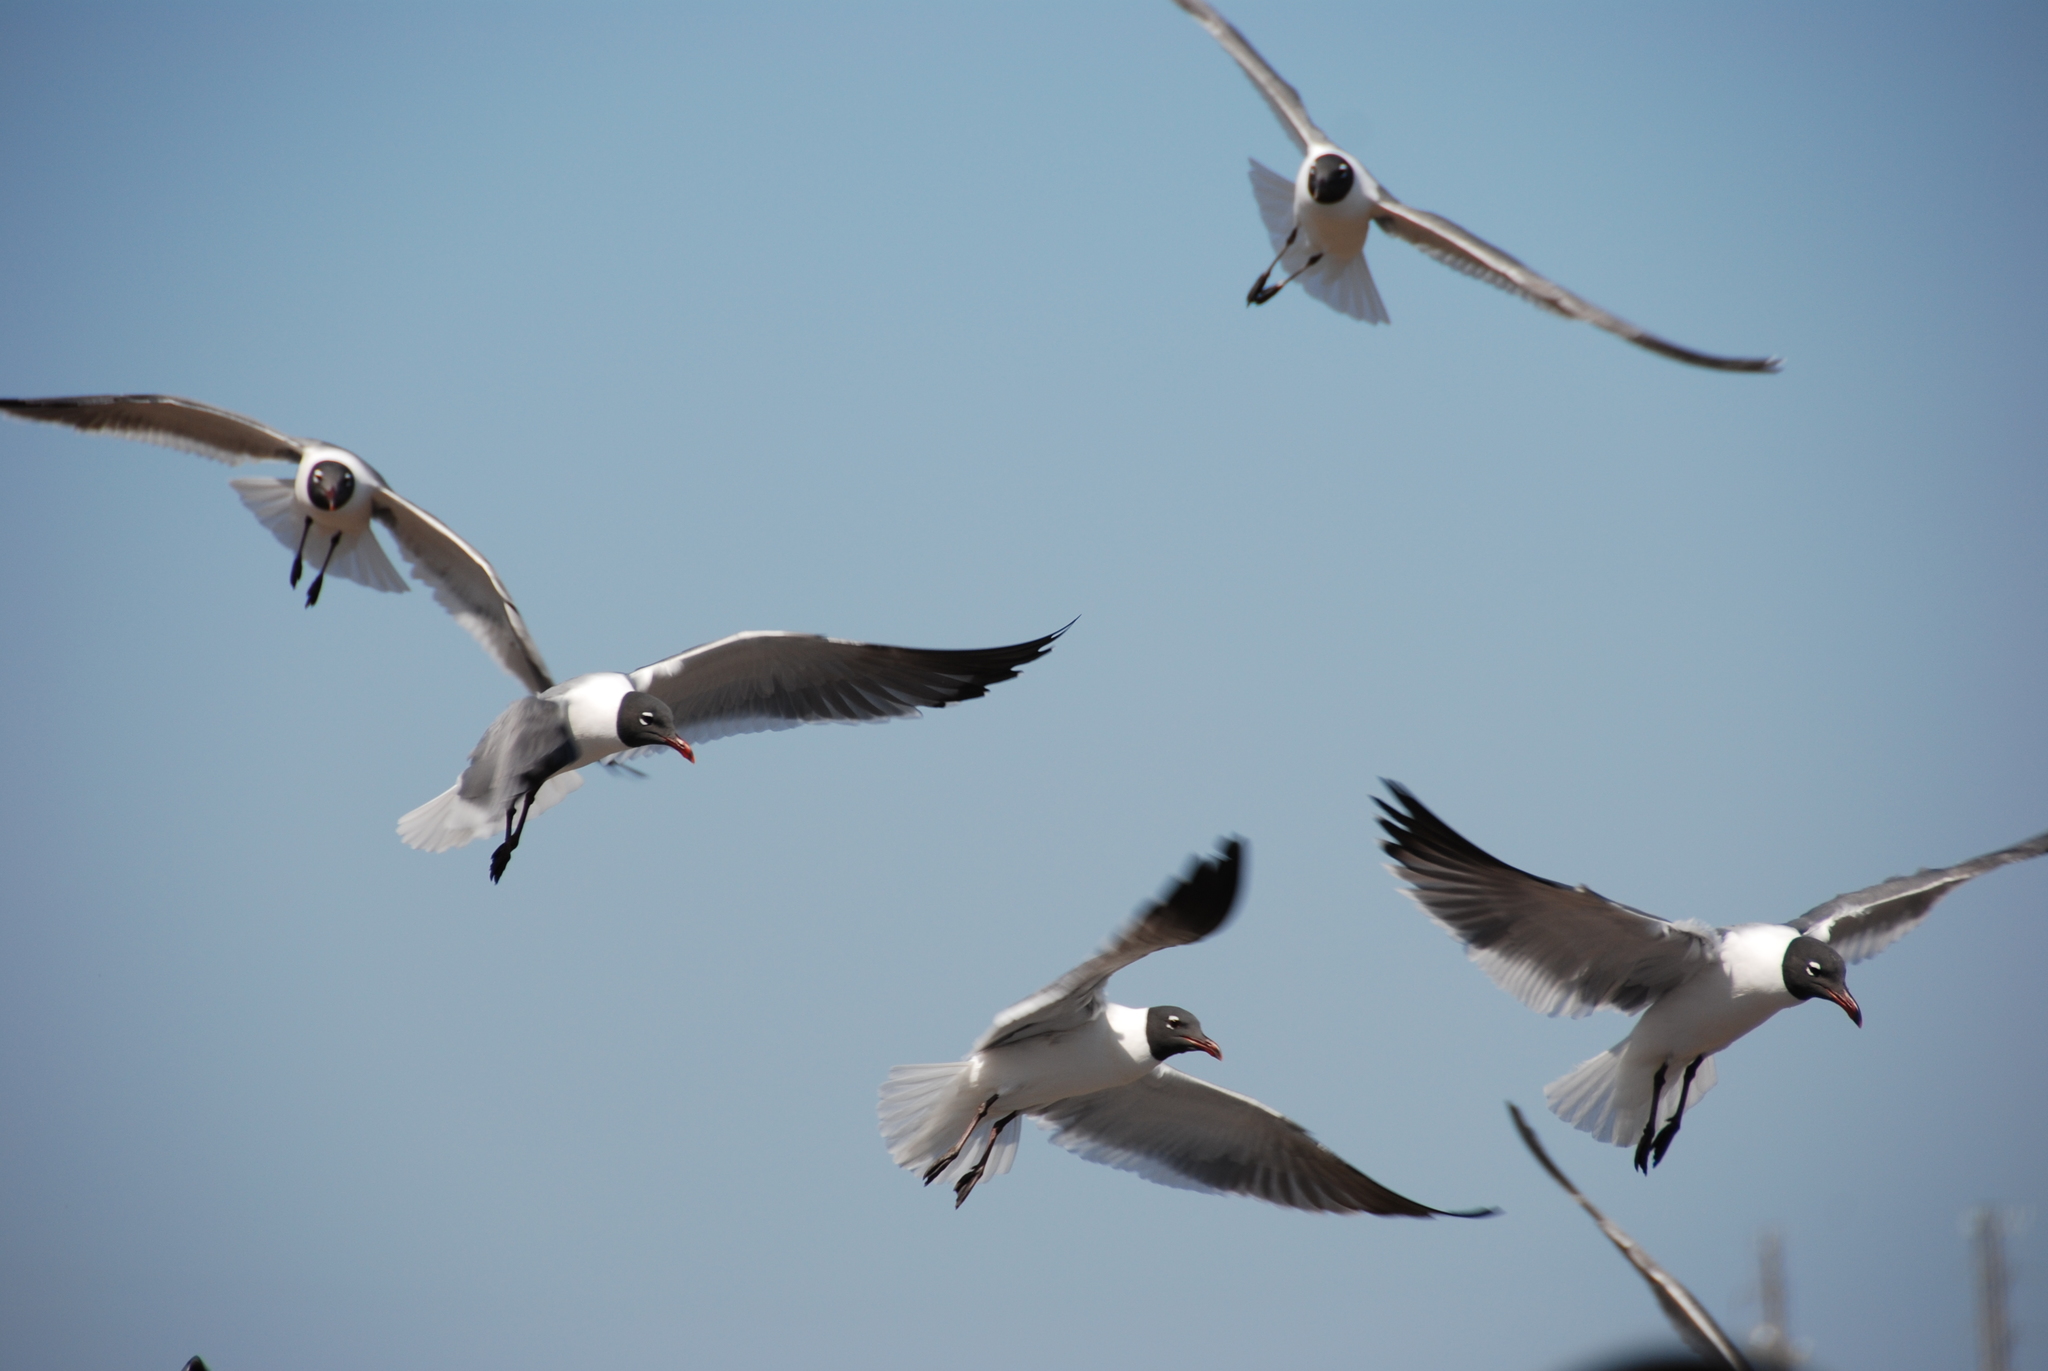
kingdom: Animalia
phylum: Chordata
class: Aves
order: Charadriiformes
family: Laridae
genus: Leucophaeus
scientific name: Leucophaeus atricilla
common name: Laughing gull
